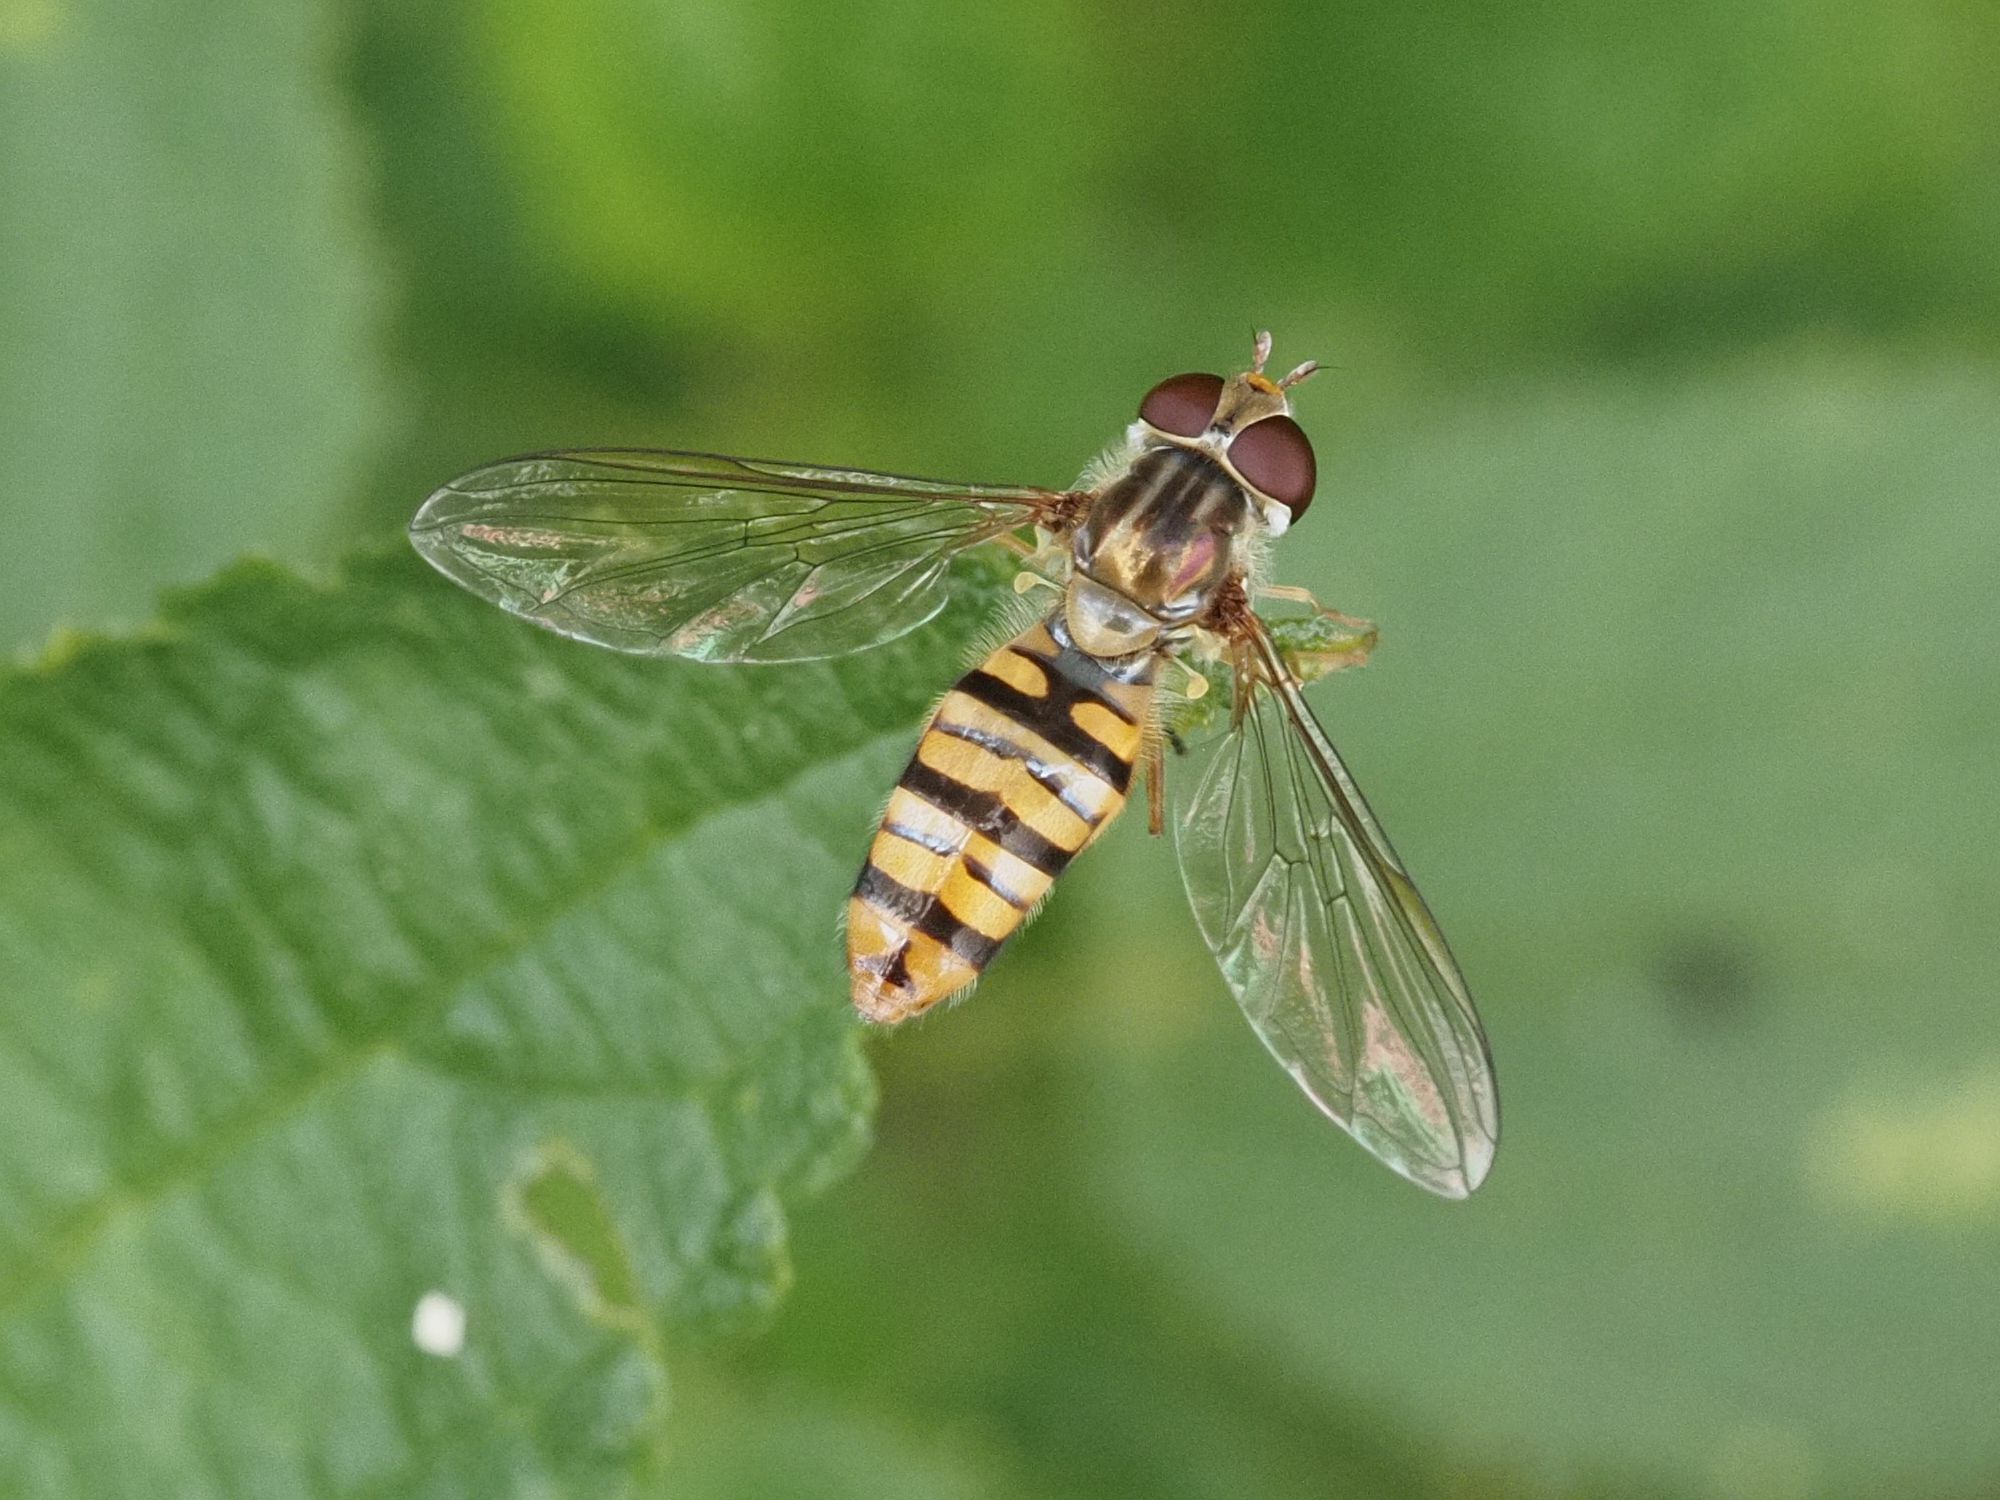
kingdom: Animalia
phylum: Arthropoda
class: Insecta
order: Diptera
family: Syrphidae
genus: Episyrphus
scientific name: Episyrphus balteatus
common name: Marmalade hoverfly
